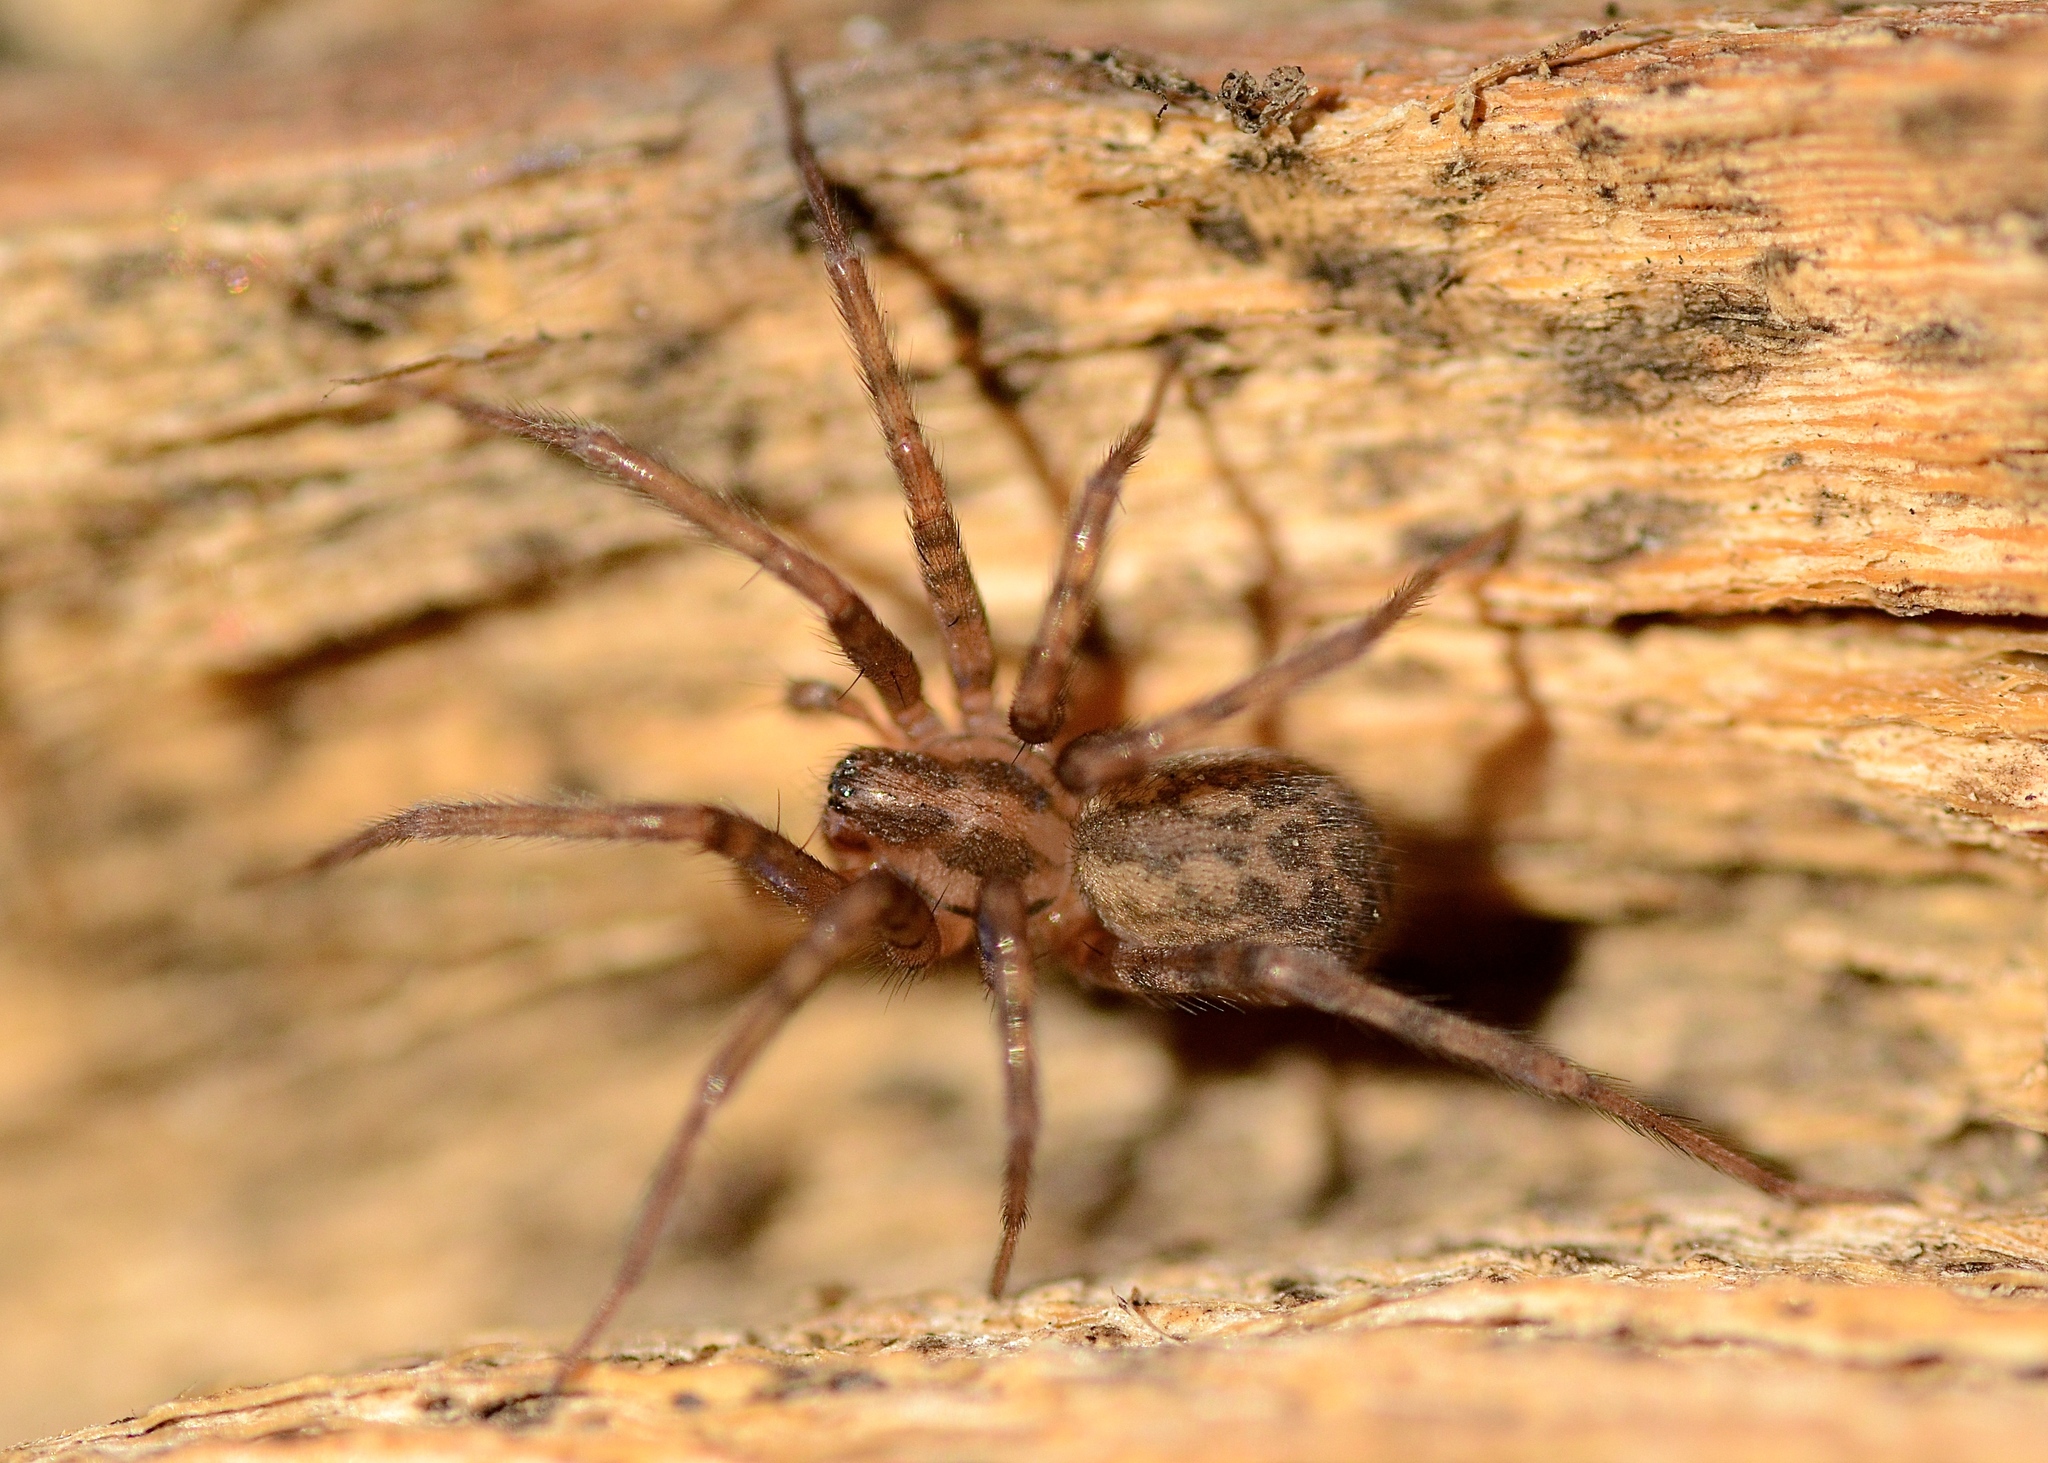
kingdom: Animalia
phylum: Arthropoda
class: Arachnida
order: Araneae
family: Agelenidae
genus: Tegenaria
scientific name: Tegenaria domestica
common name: Barn funnel weaver
